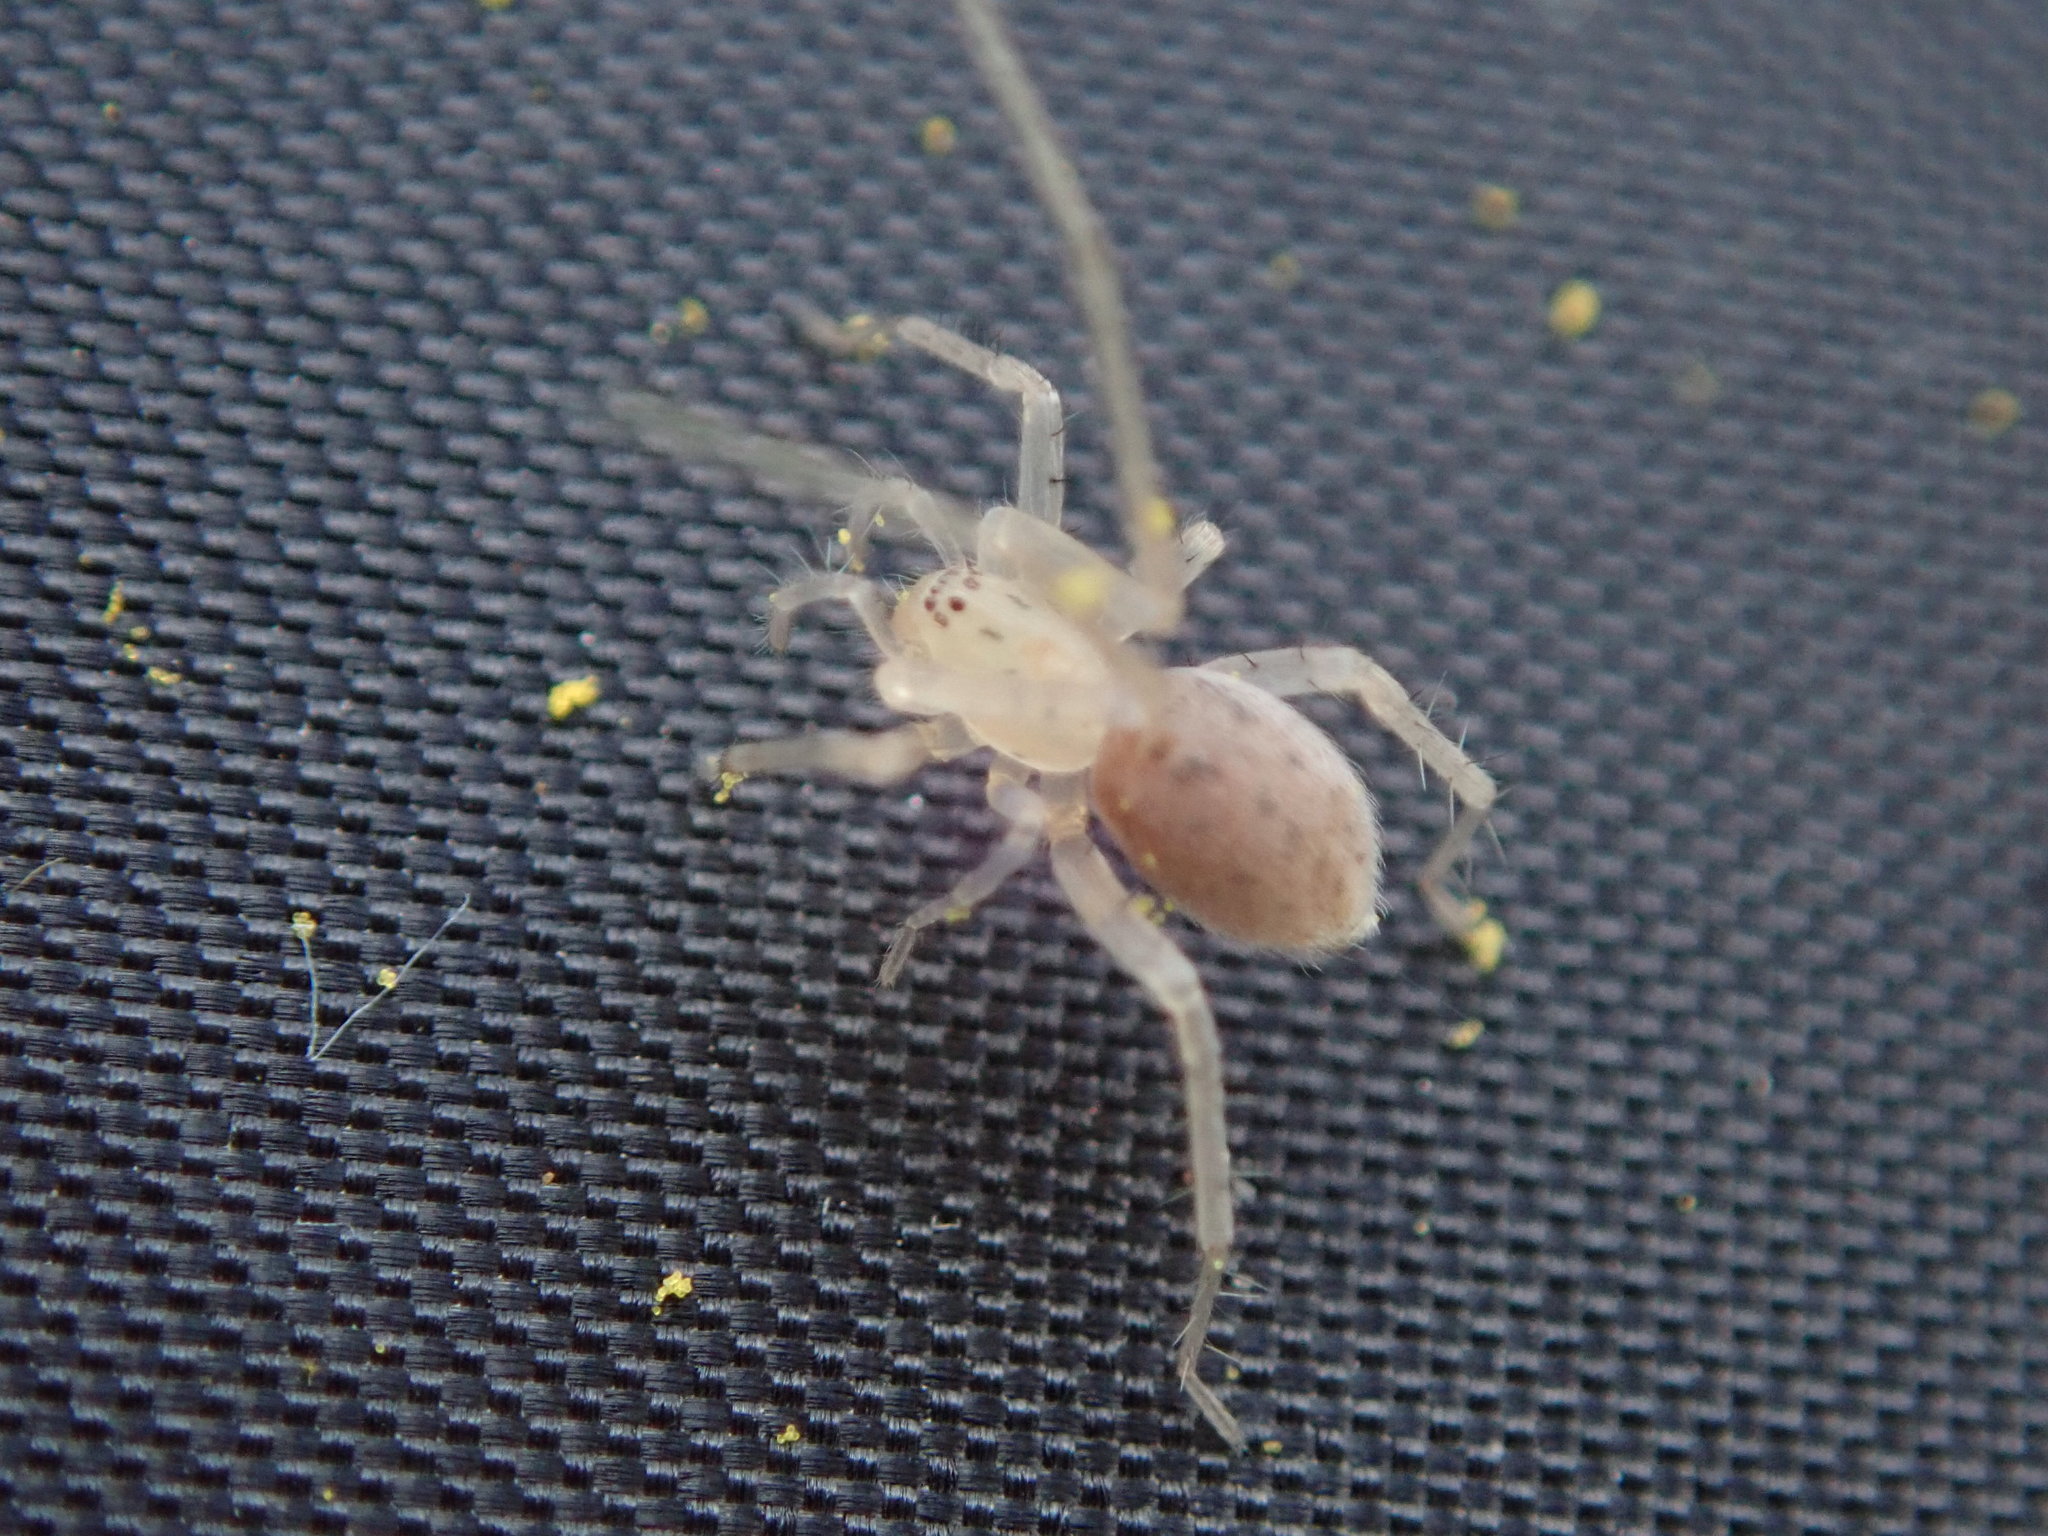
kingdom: Animalia
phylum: Arthropoda
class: Arachnida
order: Araneae
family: Anyphaenidae
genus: Wulfila
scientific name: Wulfila saltabundus
